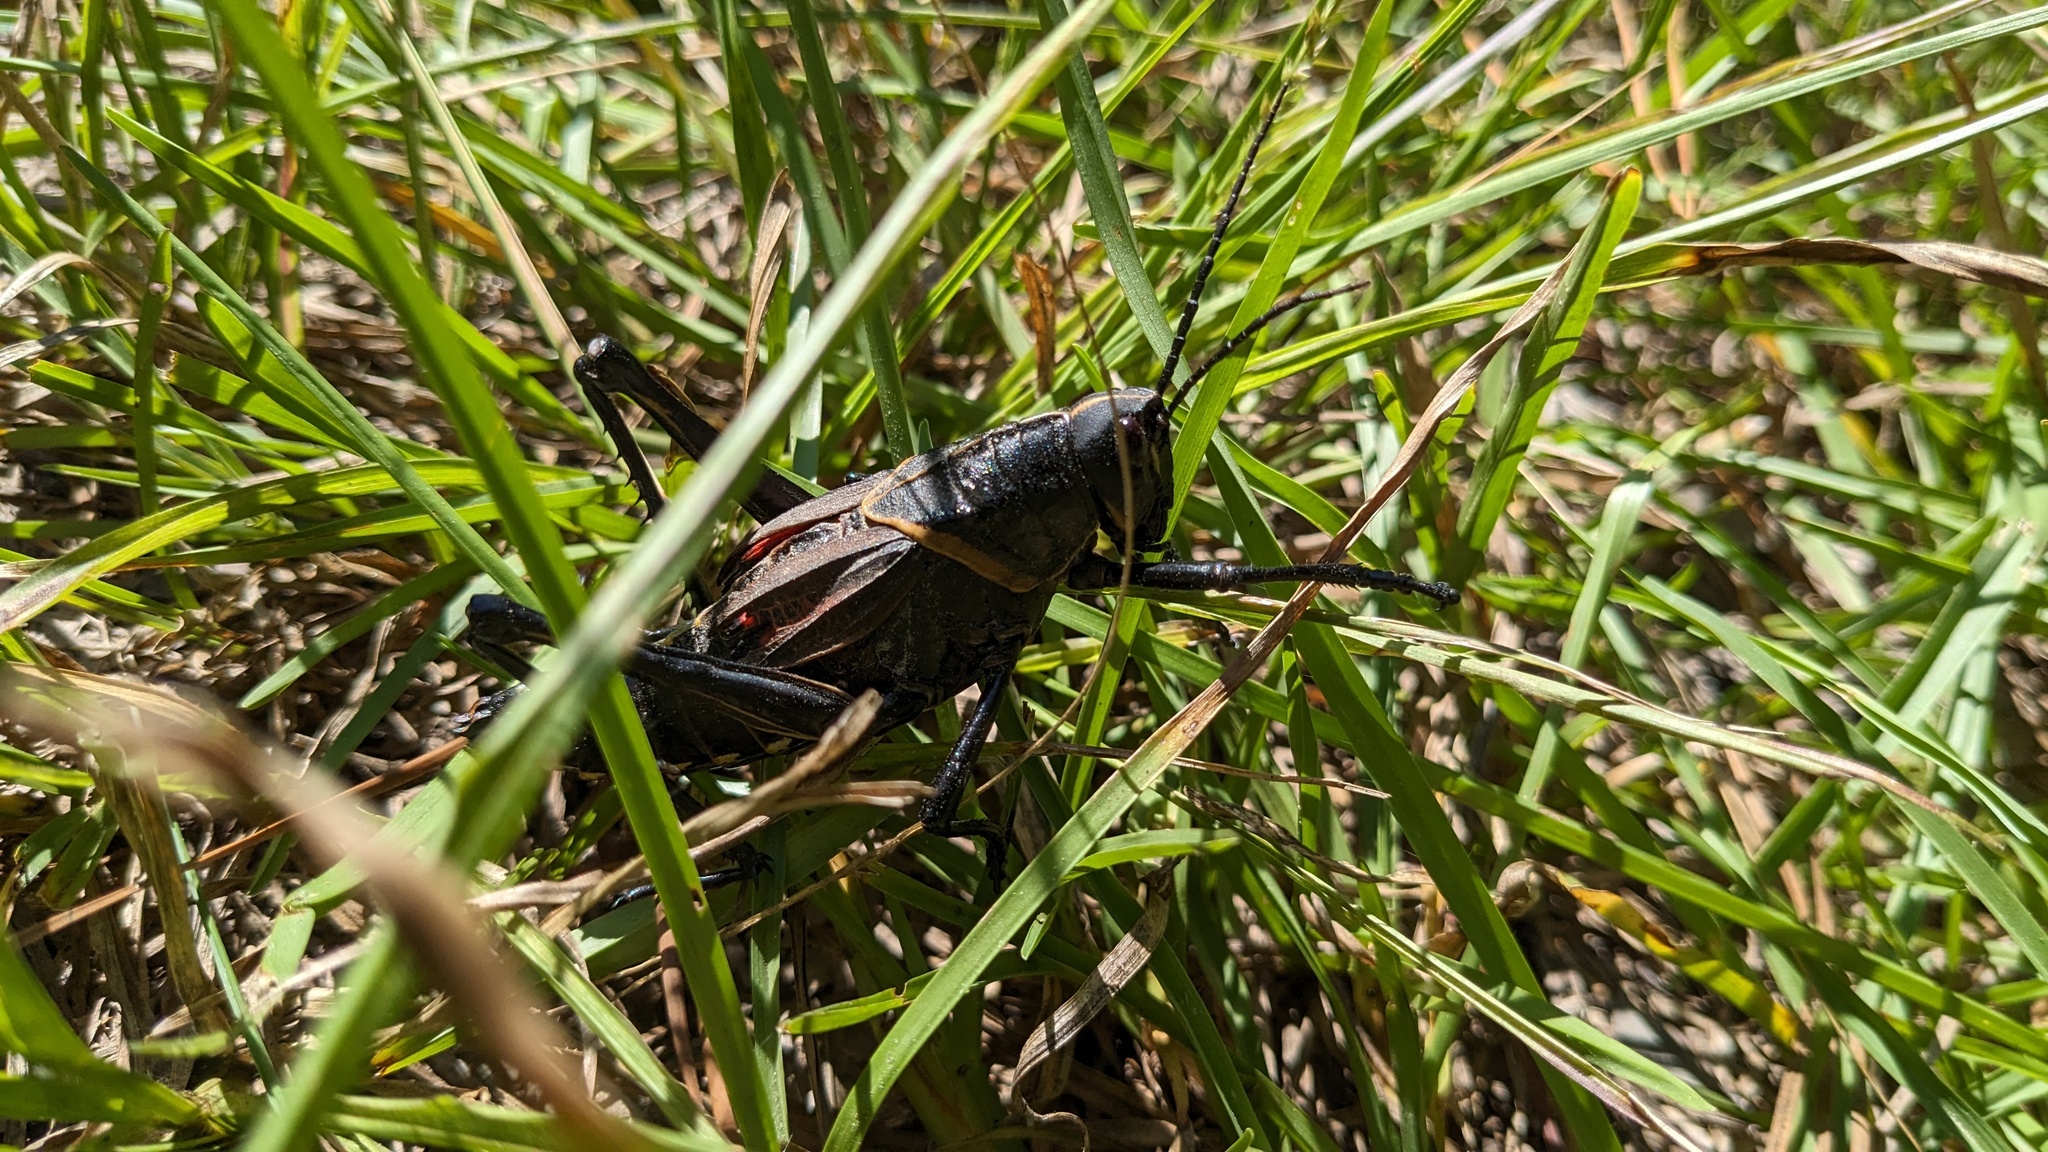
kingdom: Animalia
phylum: Arthropoda
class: Insecta
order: Orthoptera
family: Romaleidae
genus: Romalea
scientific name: Romalea microptera
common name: Eastern lubber grasshopper
